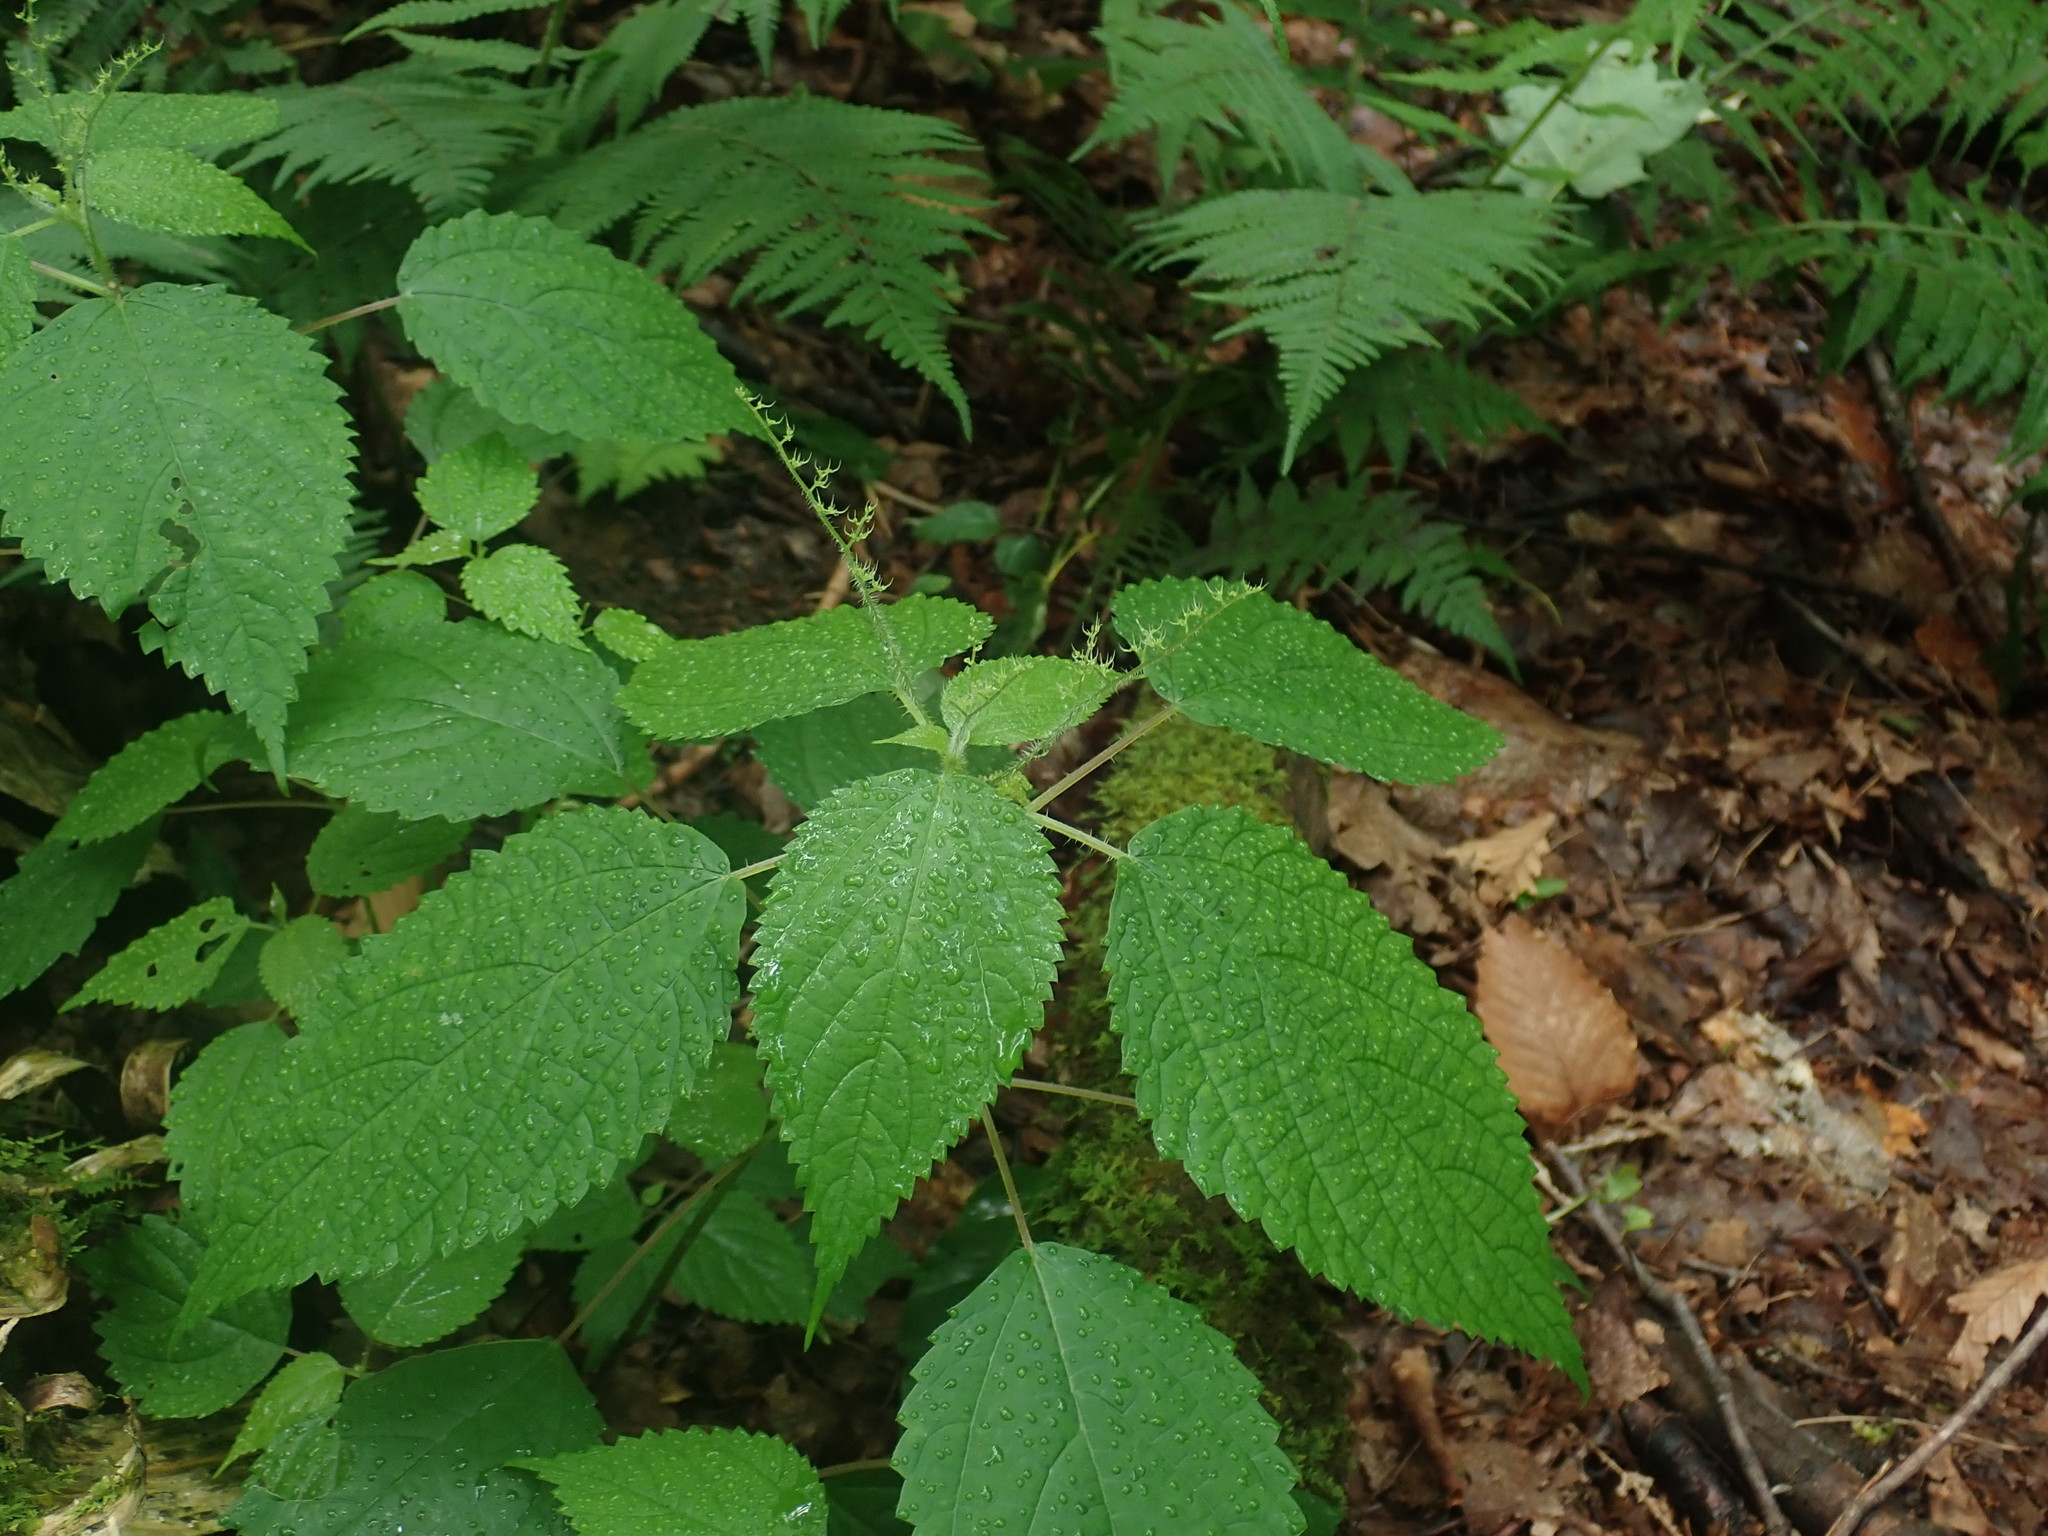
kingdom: Plantae
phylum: Tracheophyta
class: Magnoliopsida
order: Rosales
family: Urticaceae
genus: Laportea
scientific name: Laportea canadensis
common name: Canada nettle
